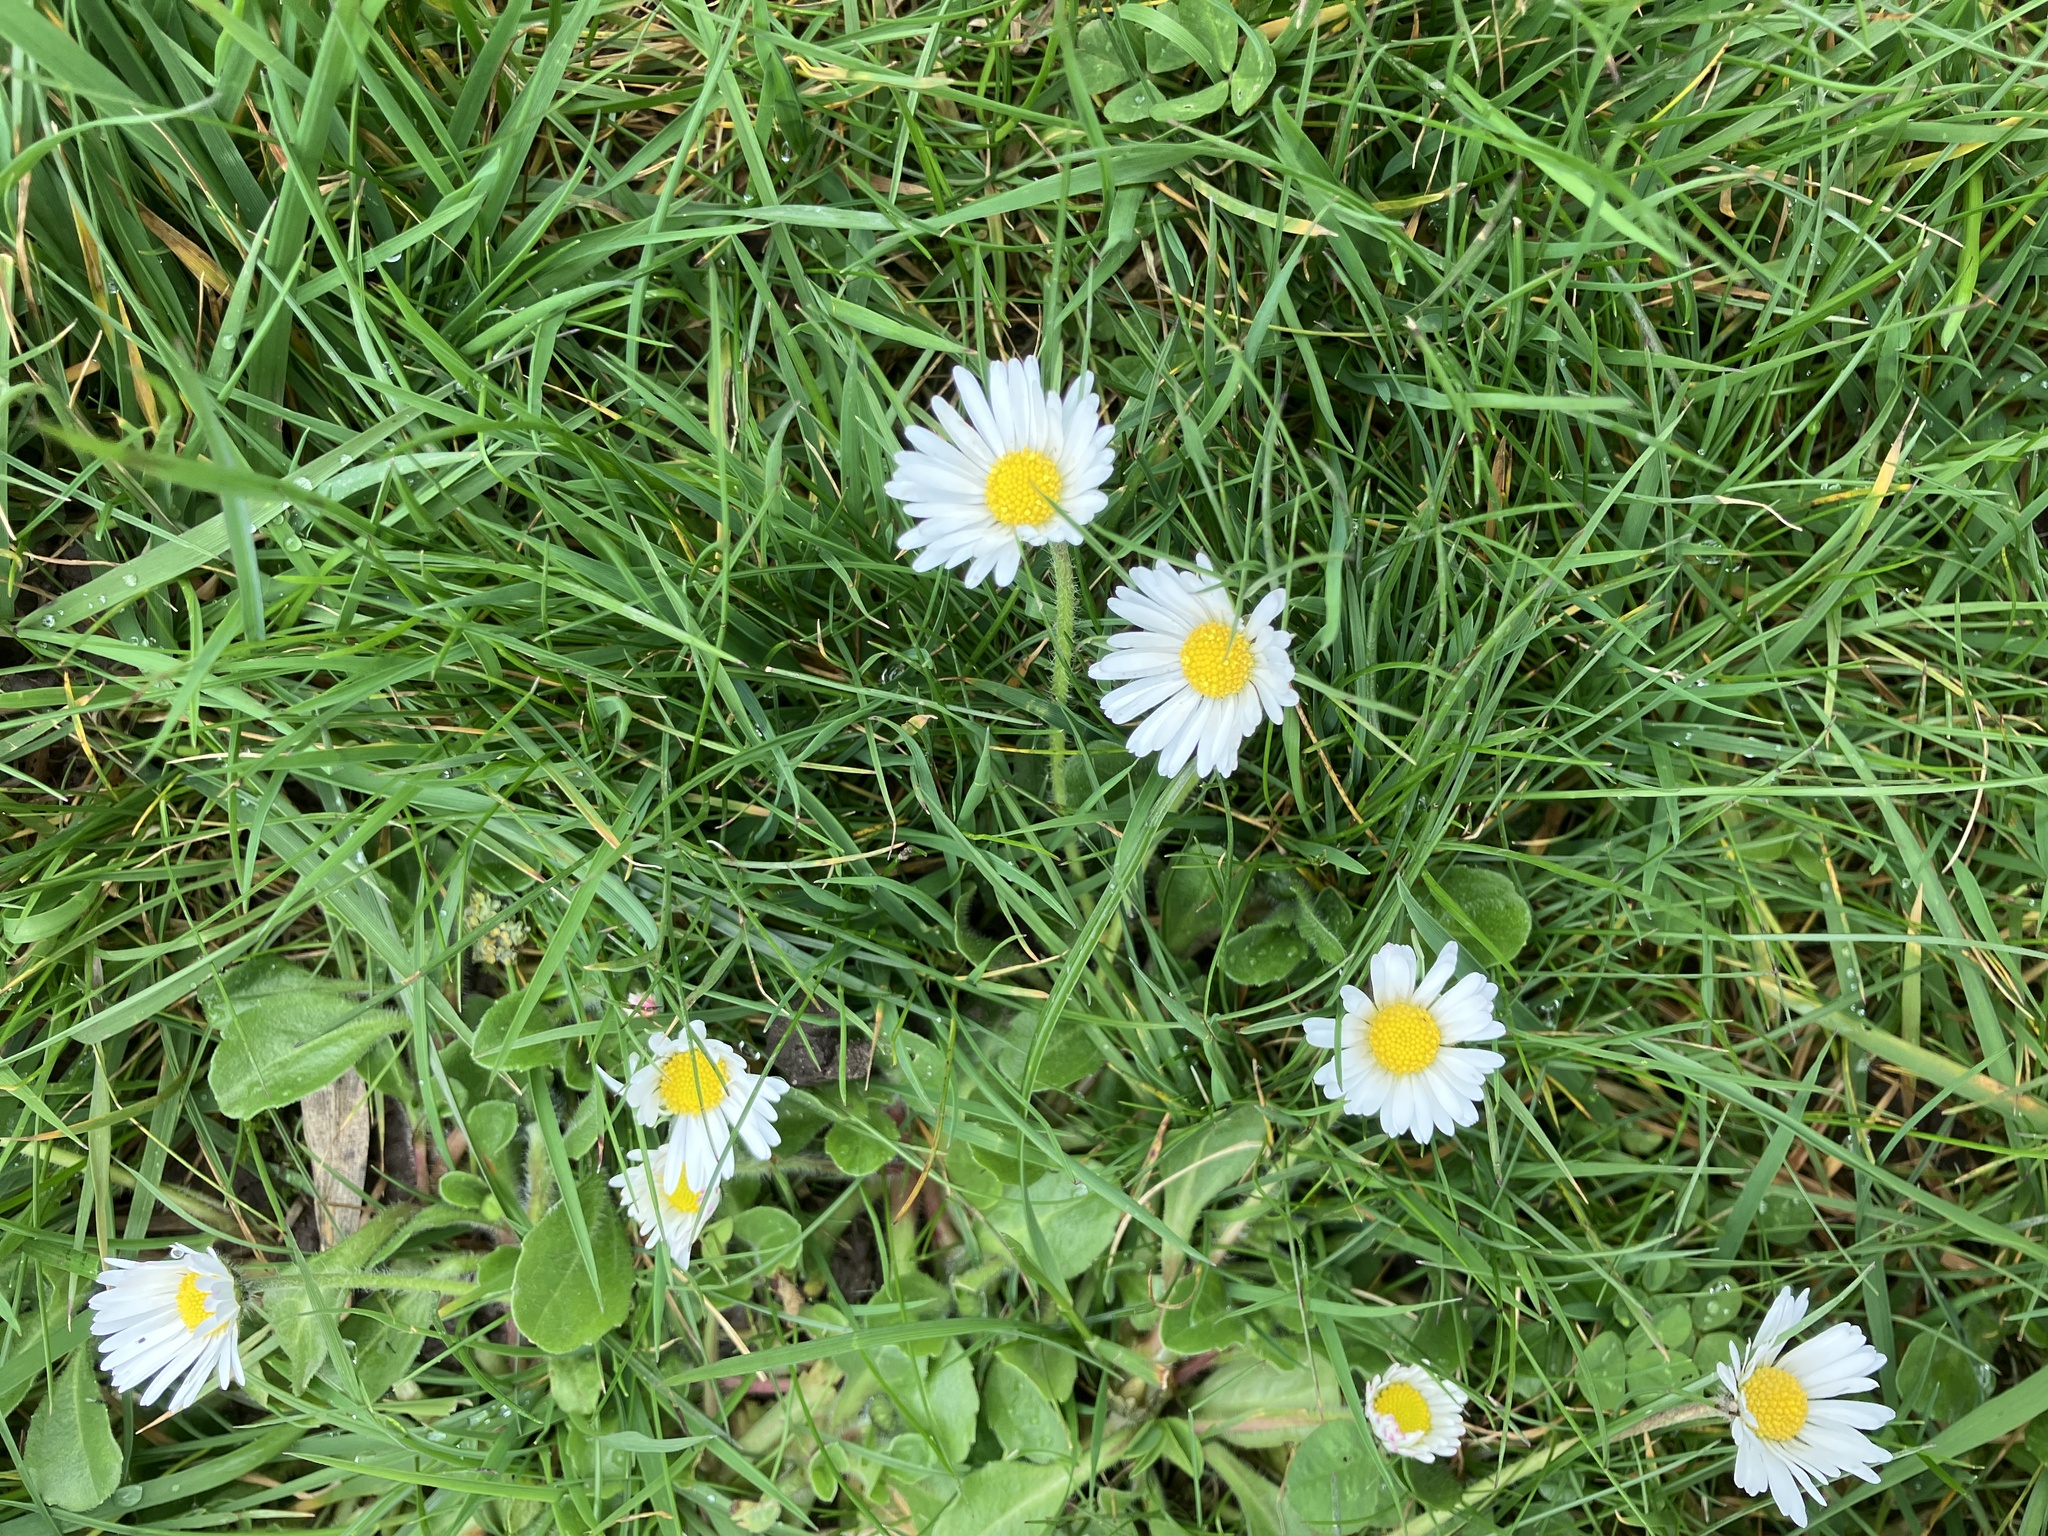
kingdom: Plantae
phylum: Tracheophyta
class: Magnoliopsida
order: Asterales
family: Asteraceae
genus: Bellis
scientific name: Bellis perennis
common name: Lawndaisy
